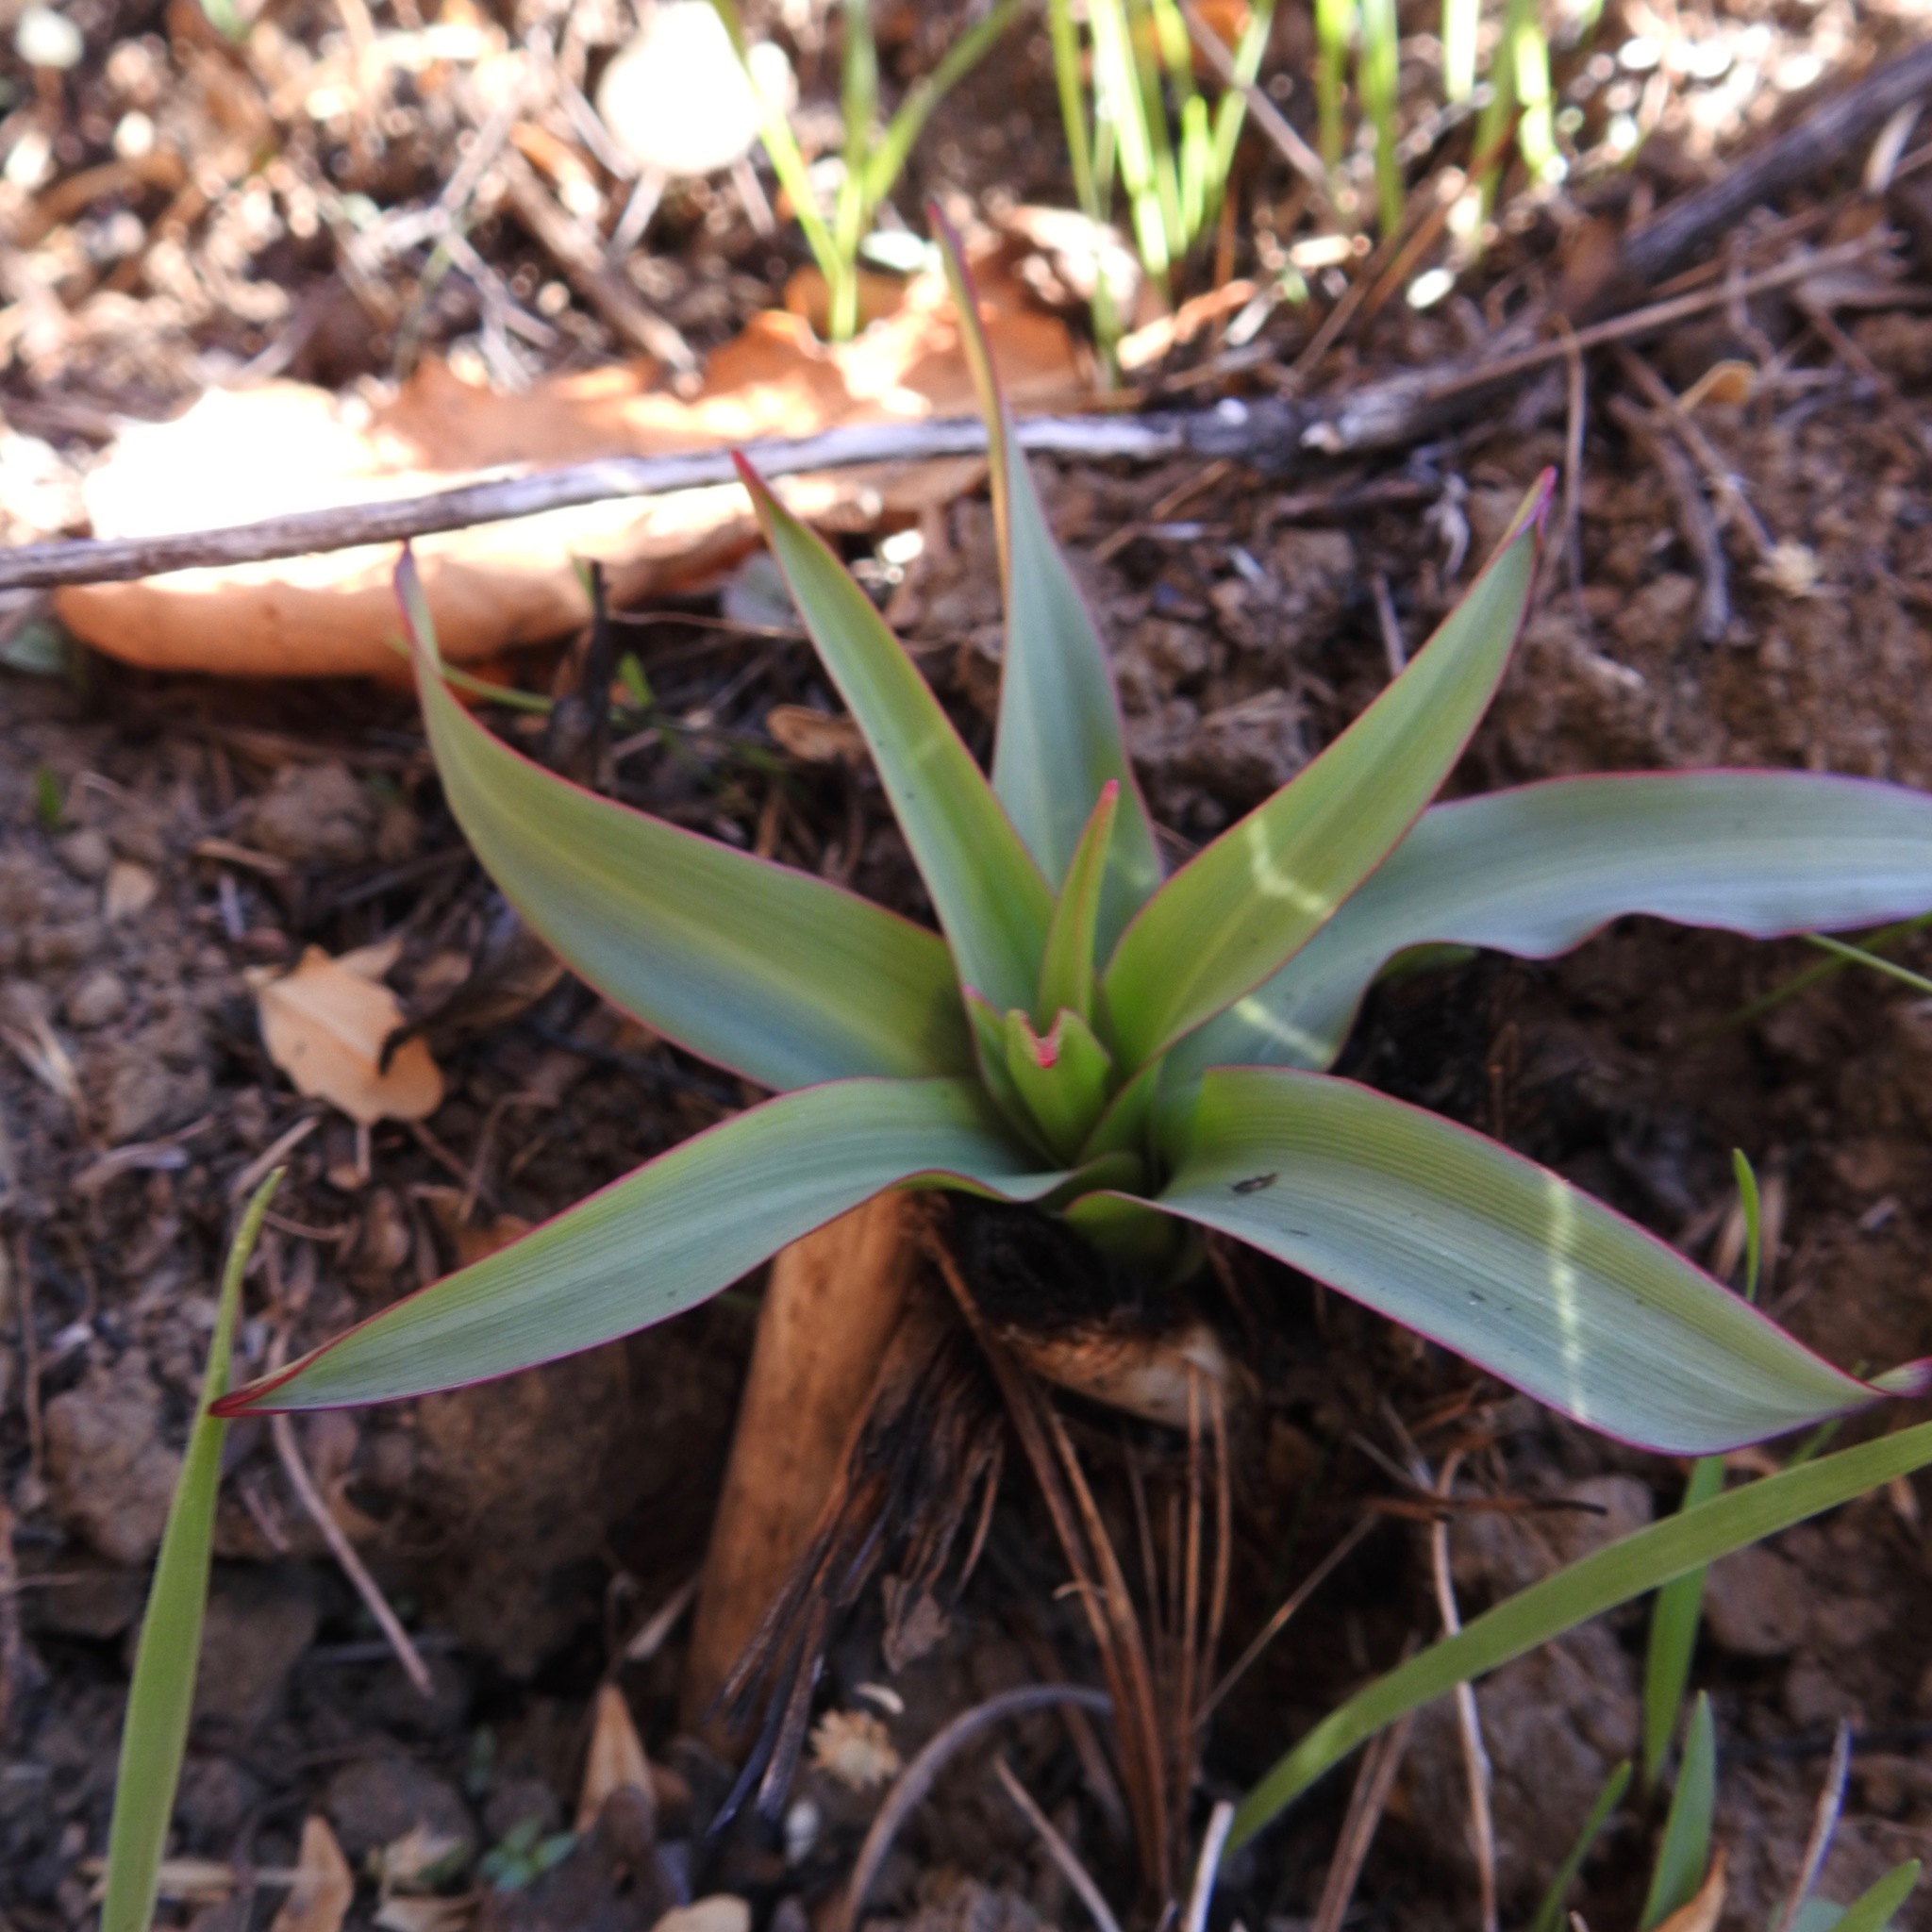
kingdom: Plantae
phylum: Tracheophyta
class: Liliopsida
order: Asparagales
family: Asparagaceae
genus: Chlorogalum
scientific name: Chlorogalum pomeridianum
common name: Amole
